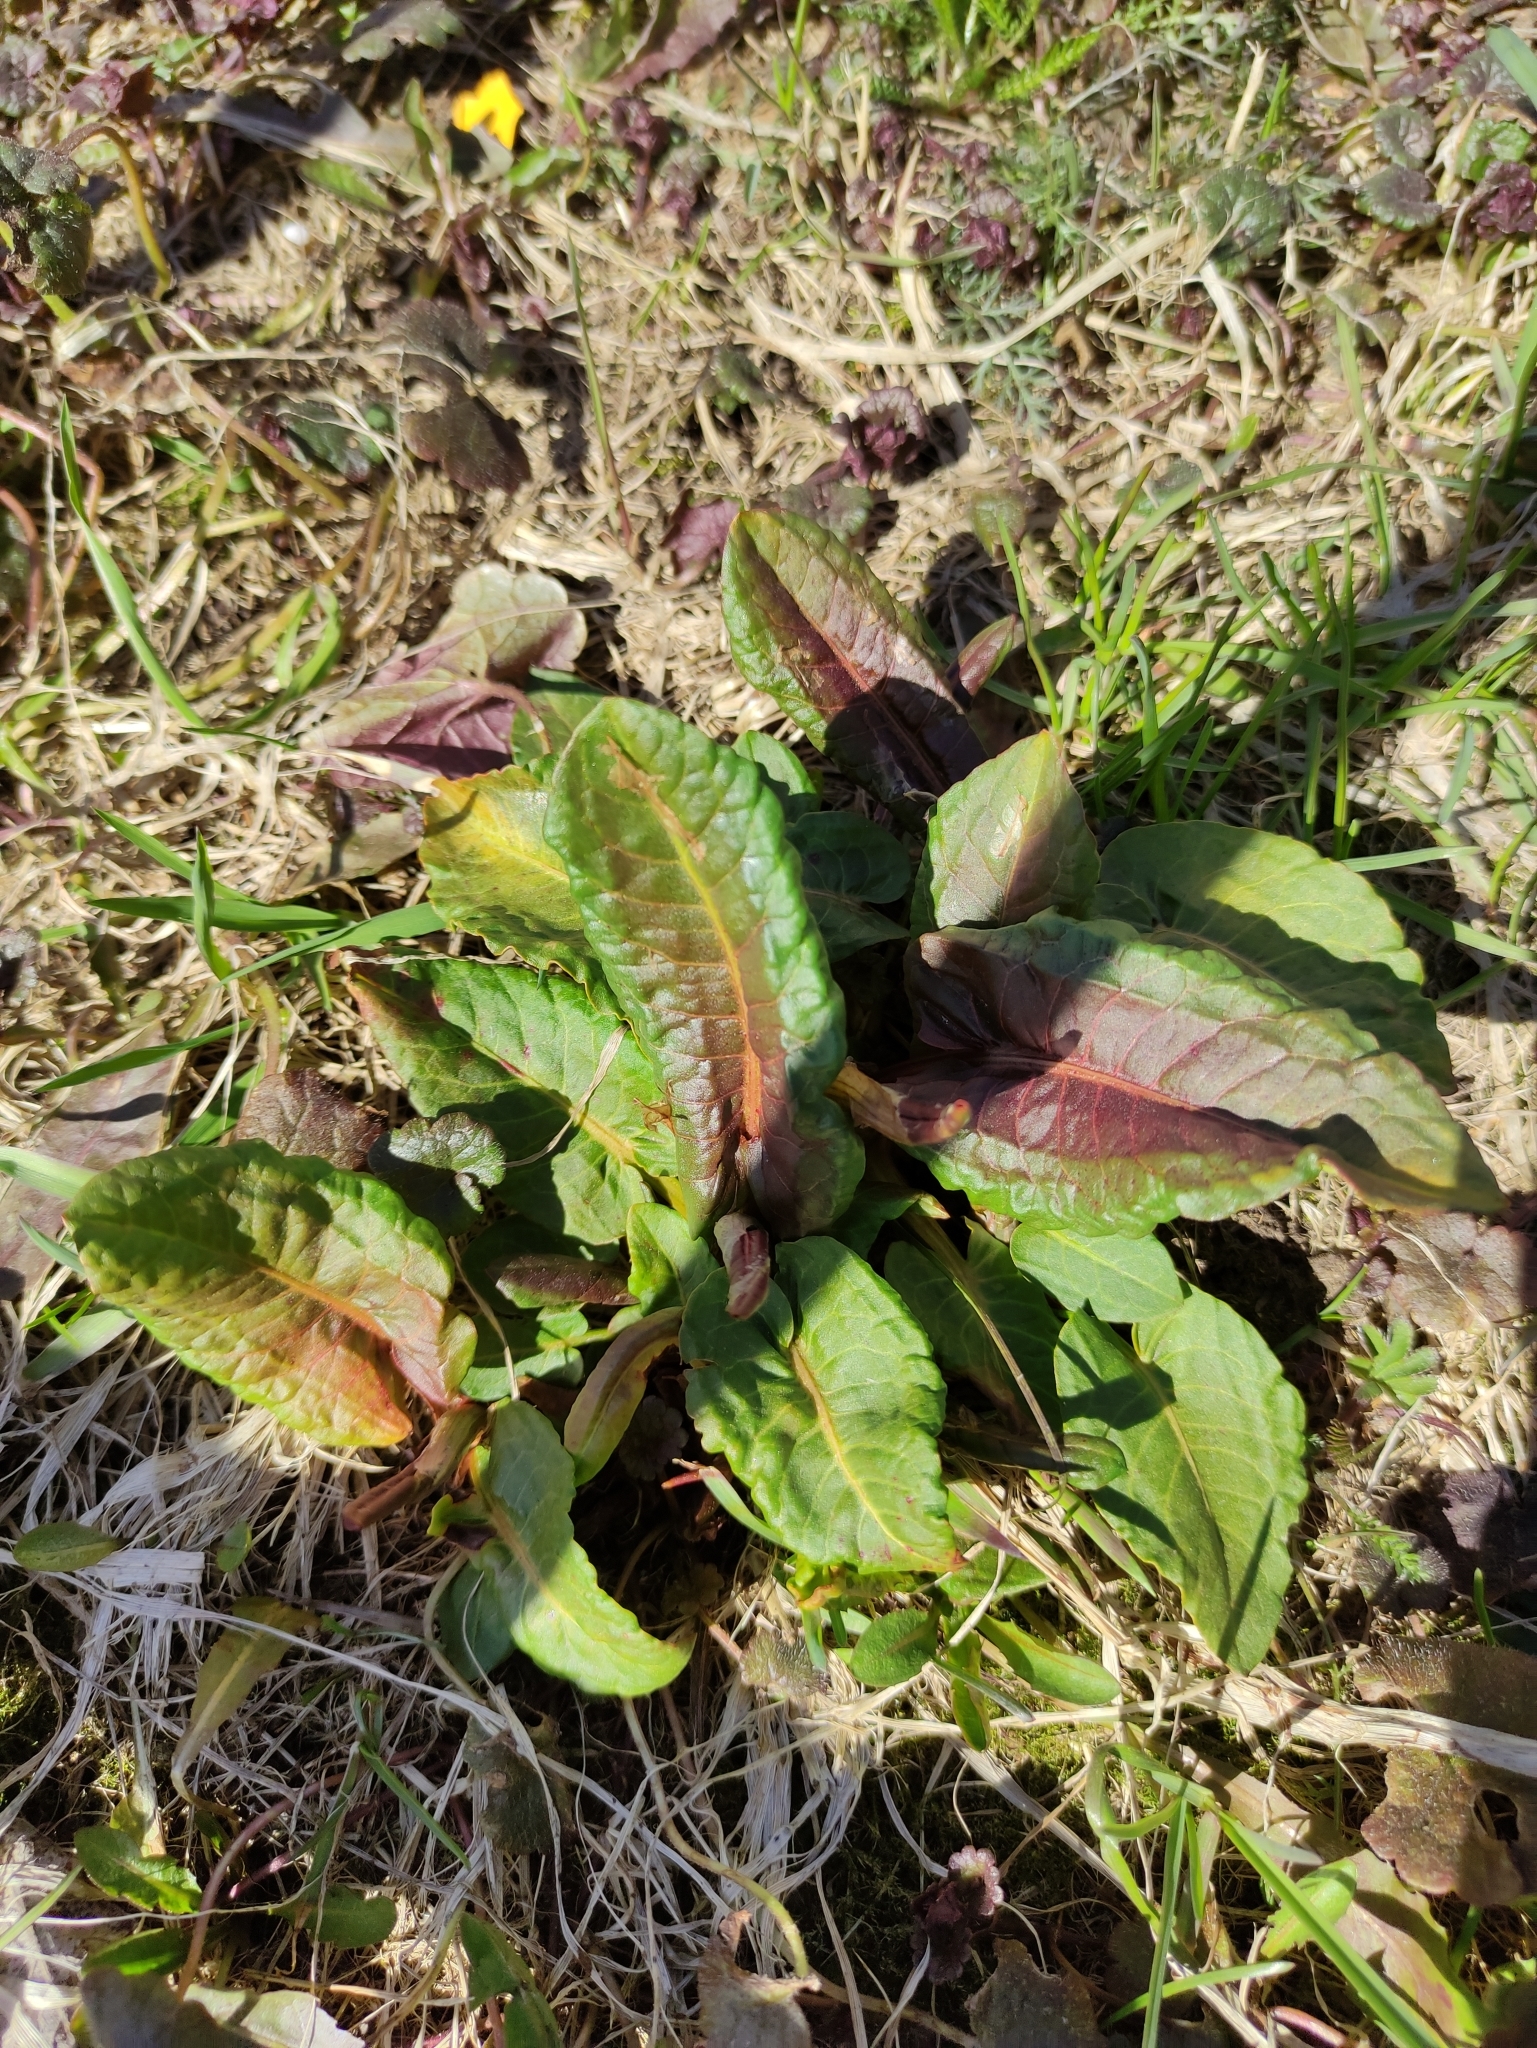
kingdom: Plantae
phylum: Tracheophyta
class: Magnoliopsida
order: Caryophyllales
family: Polygonaceae
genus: Rumex
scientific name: Rumex obtusifolius
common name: Bitter dock
